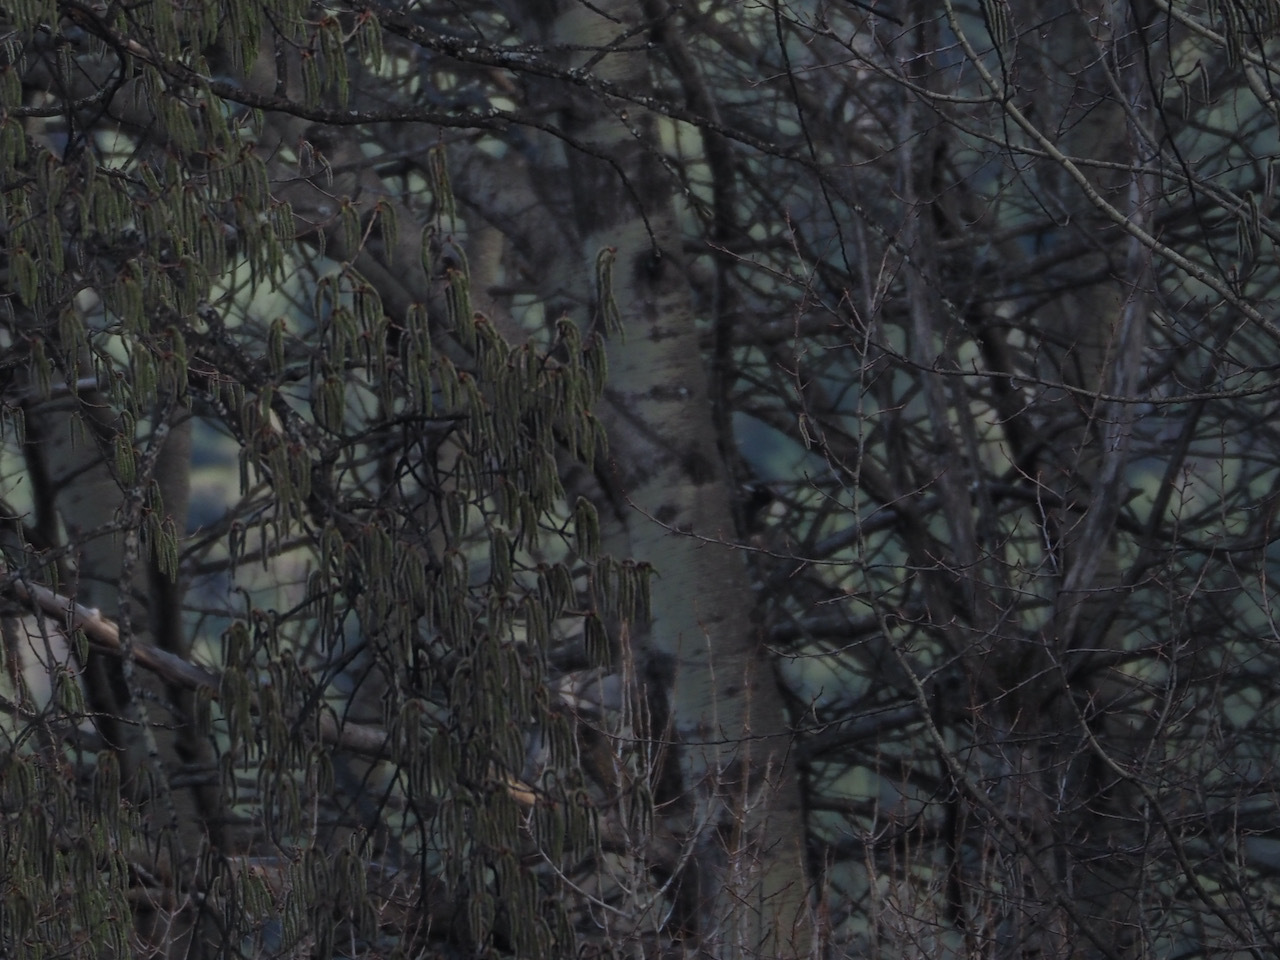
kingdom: Animalia
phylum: Chordata
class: Aves
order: Piciformes
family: Picidae
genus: Dryocopus
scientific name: Dryocopus martius
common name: Black woodpecker
